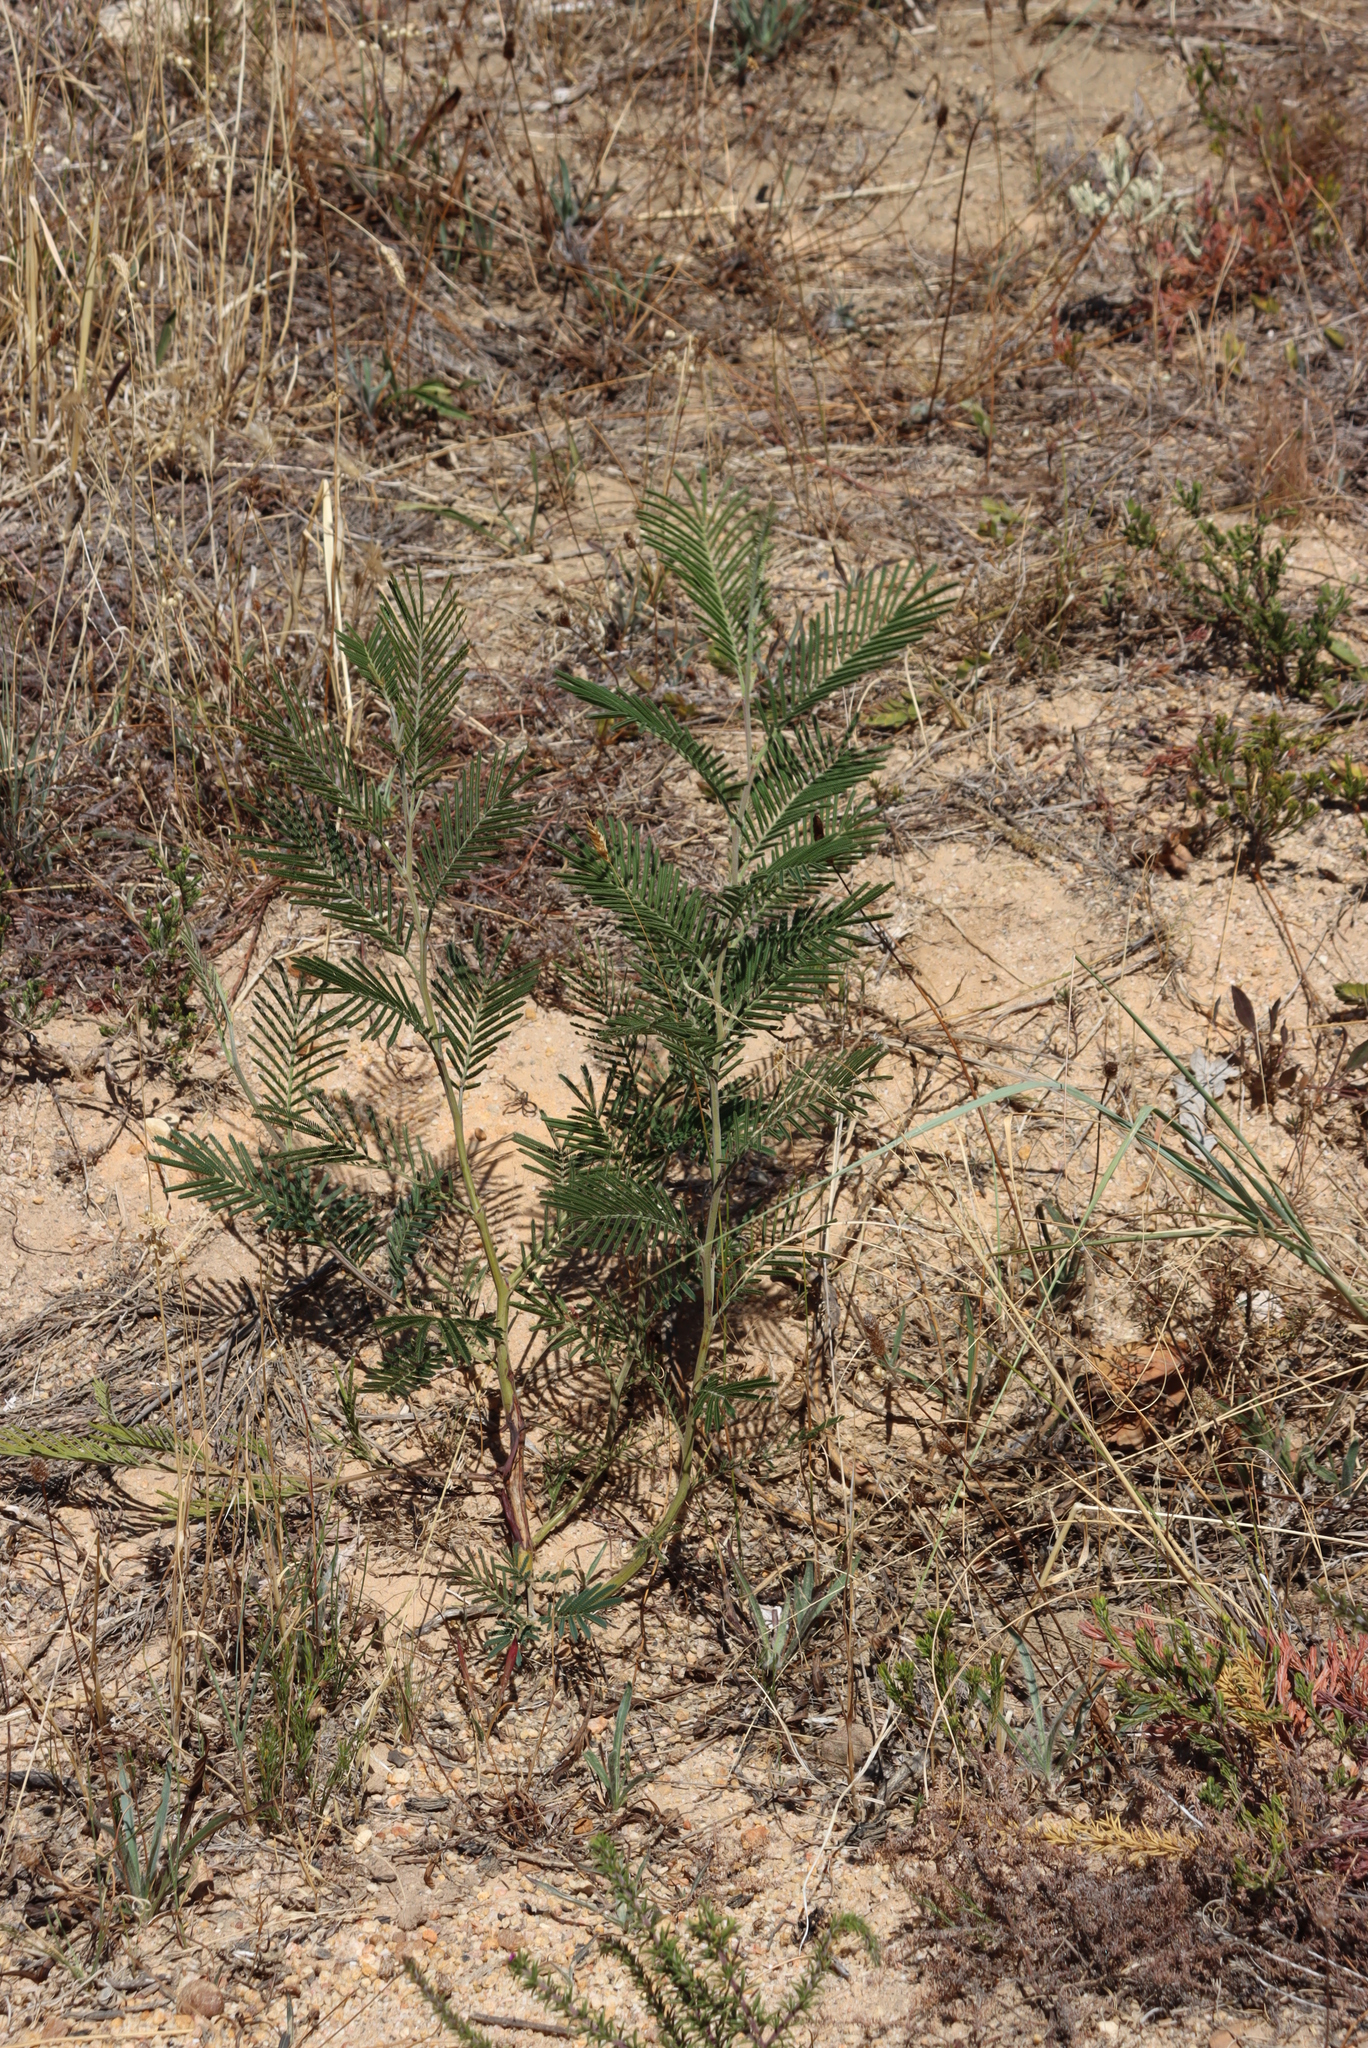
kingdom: Plantae
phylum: Tracheophyta
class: Magnoliopsida
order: Fabales
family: Fabaceae
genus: Acacia
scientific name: Acacia mearnsii
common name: Black wattle
